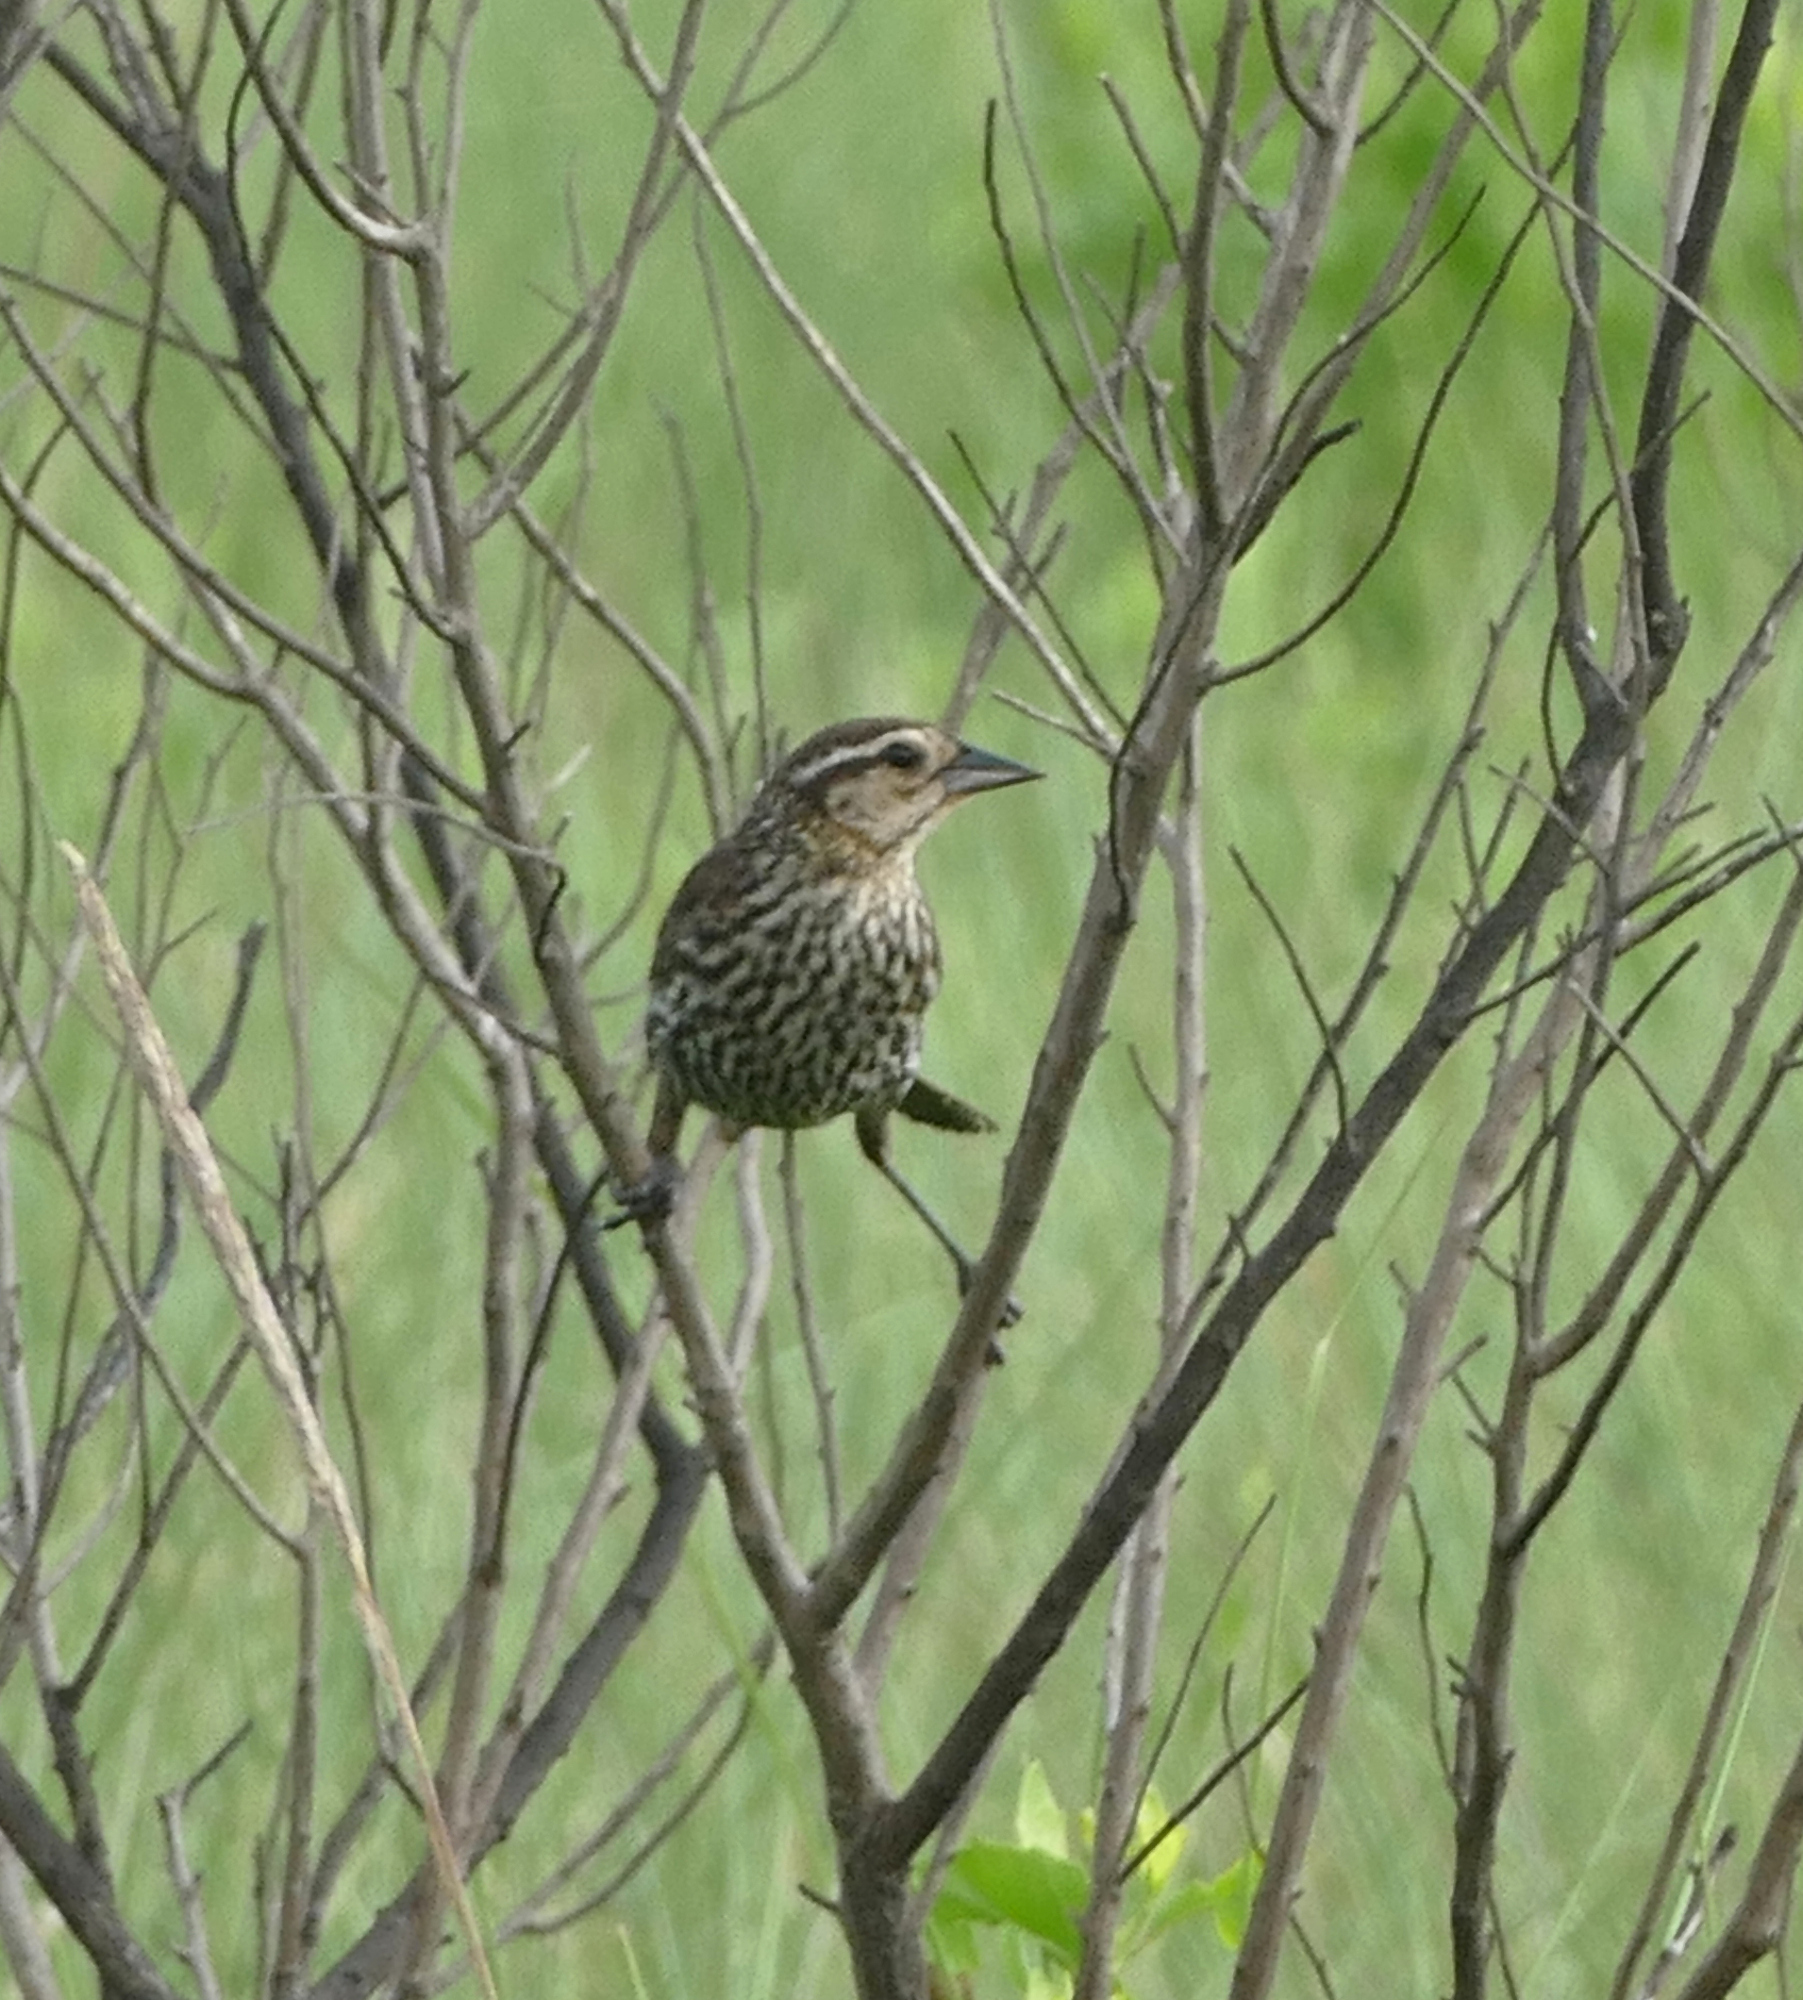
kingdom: Animalia
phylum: Chordata
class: Aves
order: Passeriformes
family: Icteridae
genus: Agelaius
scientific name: Agelaius phoeniceus
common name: Red-winged blackbird
